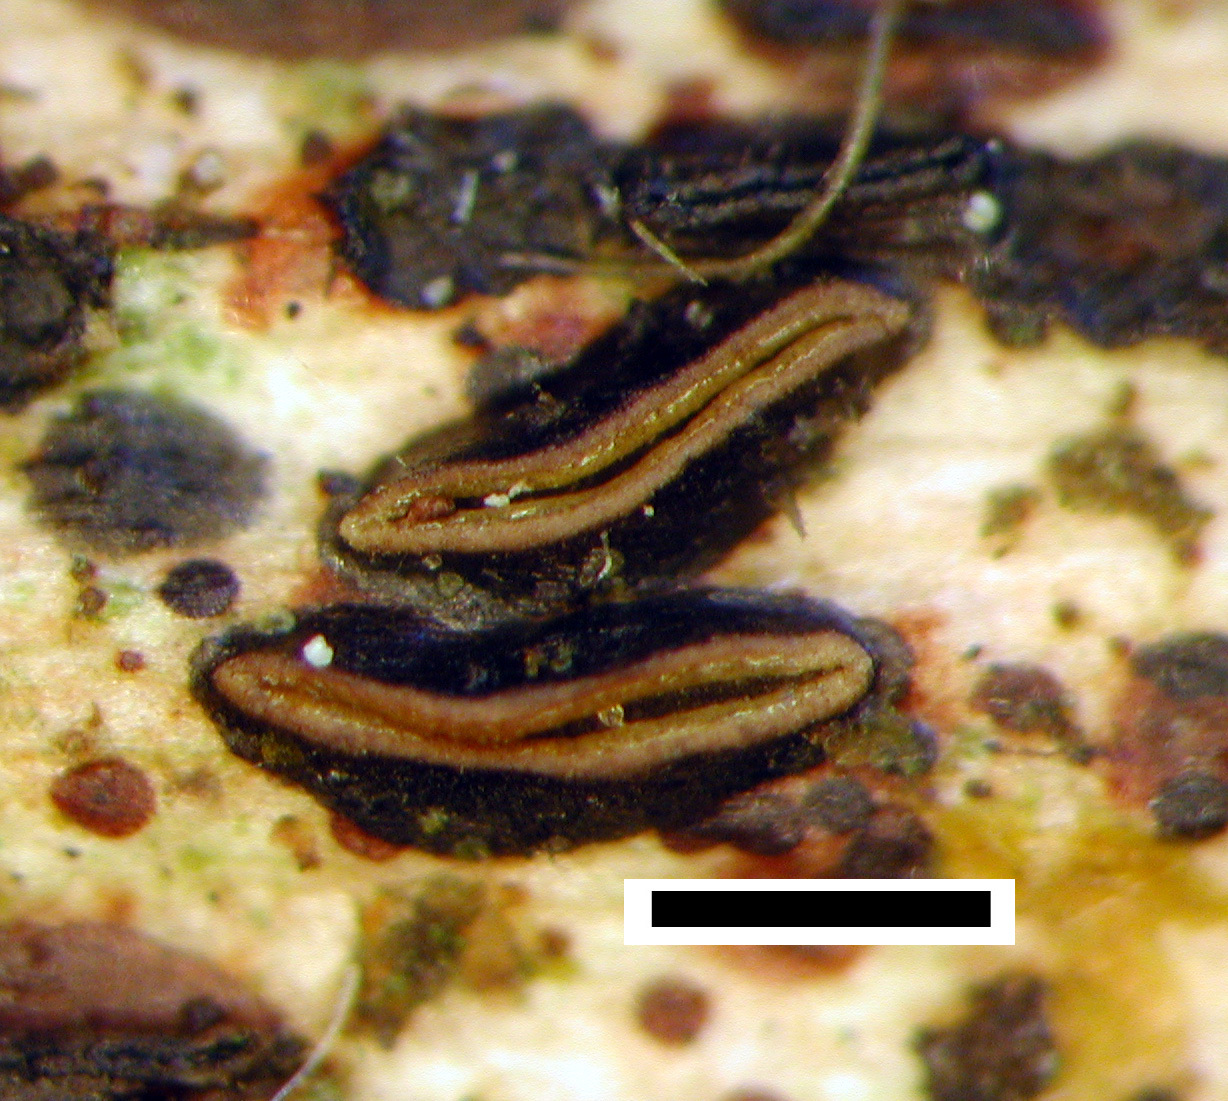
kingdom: Fungi
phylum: Ascomycota
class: Leotiomycetes
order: Rhytismatales
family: Rhytismataceae
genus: Hypoderma
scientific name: Hypoderma rubi
